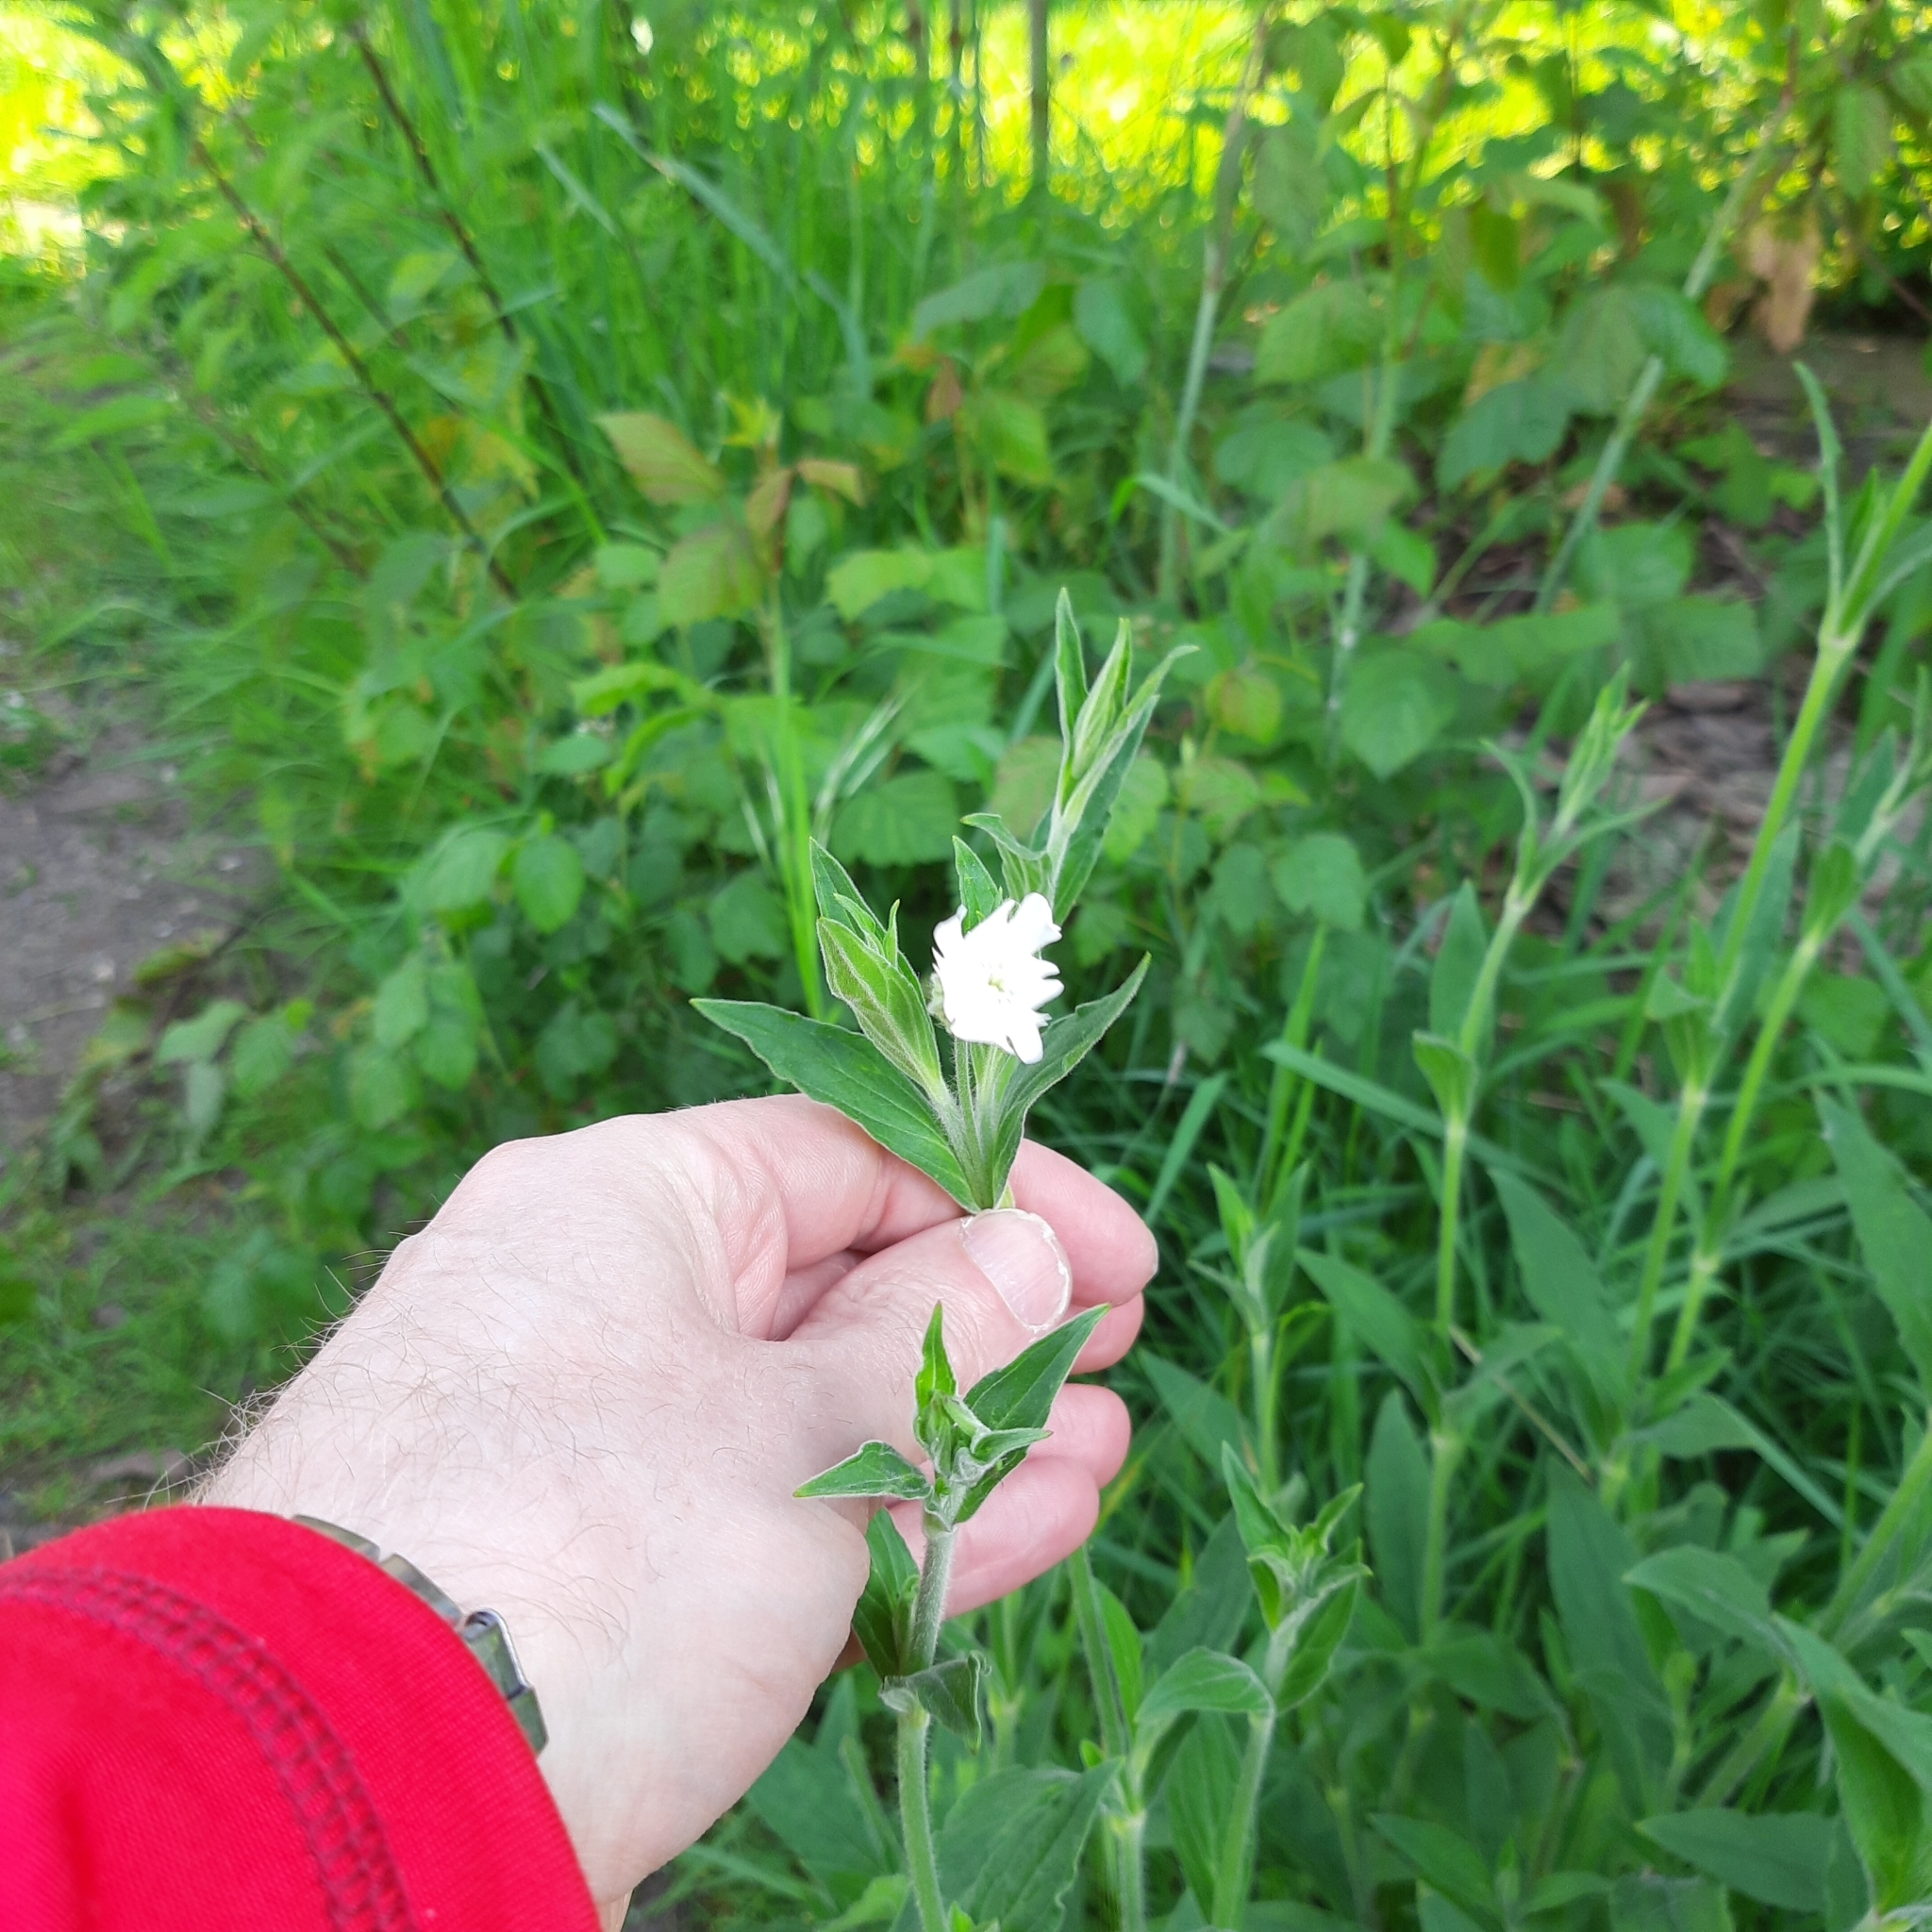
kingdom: Plantae
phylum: Tracheophyta
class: Magnoliopsida
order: Caryophyllales
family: Caryophyllaceae
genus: Silene
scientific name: Silene latifolia
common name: White campion
